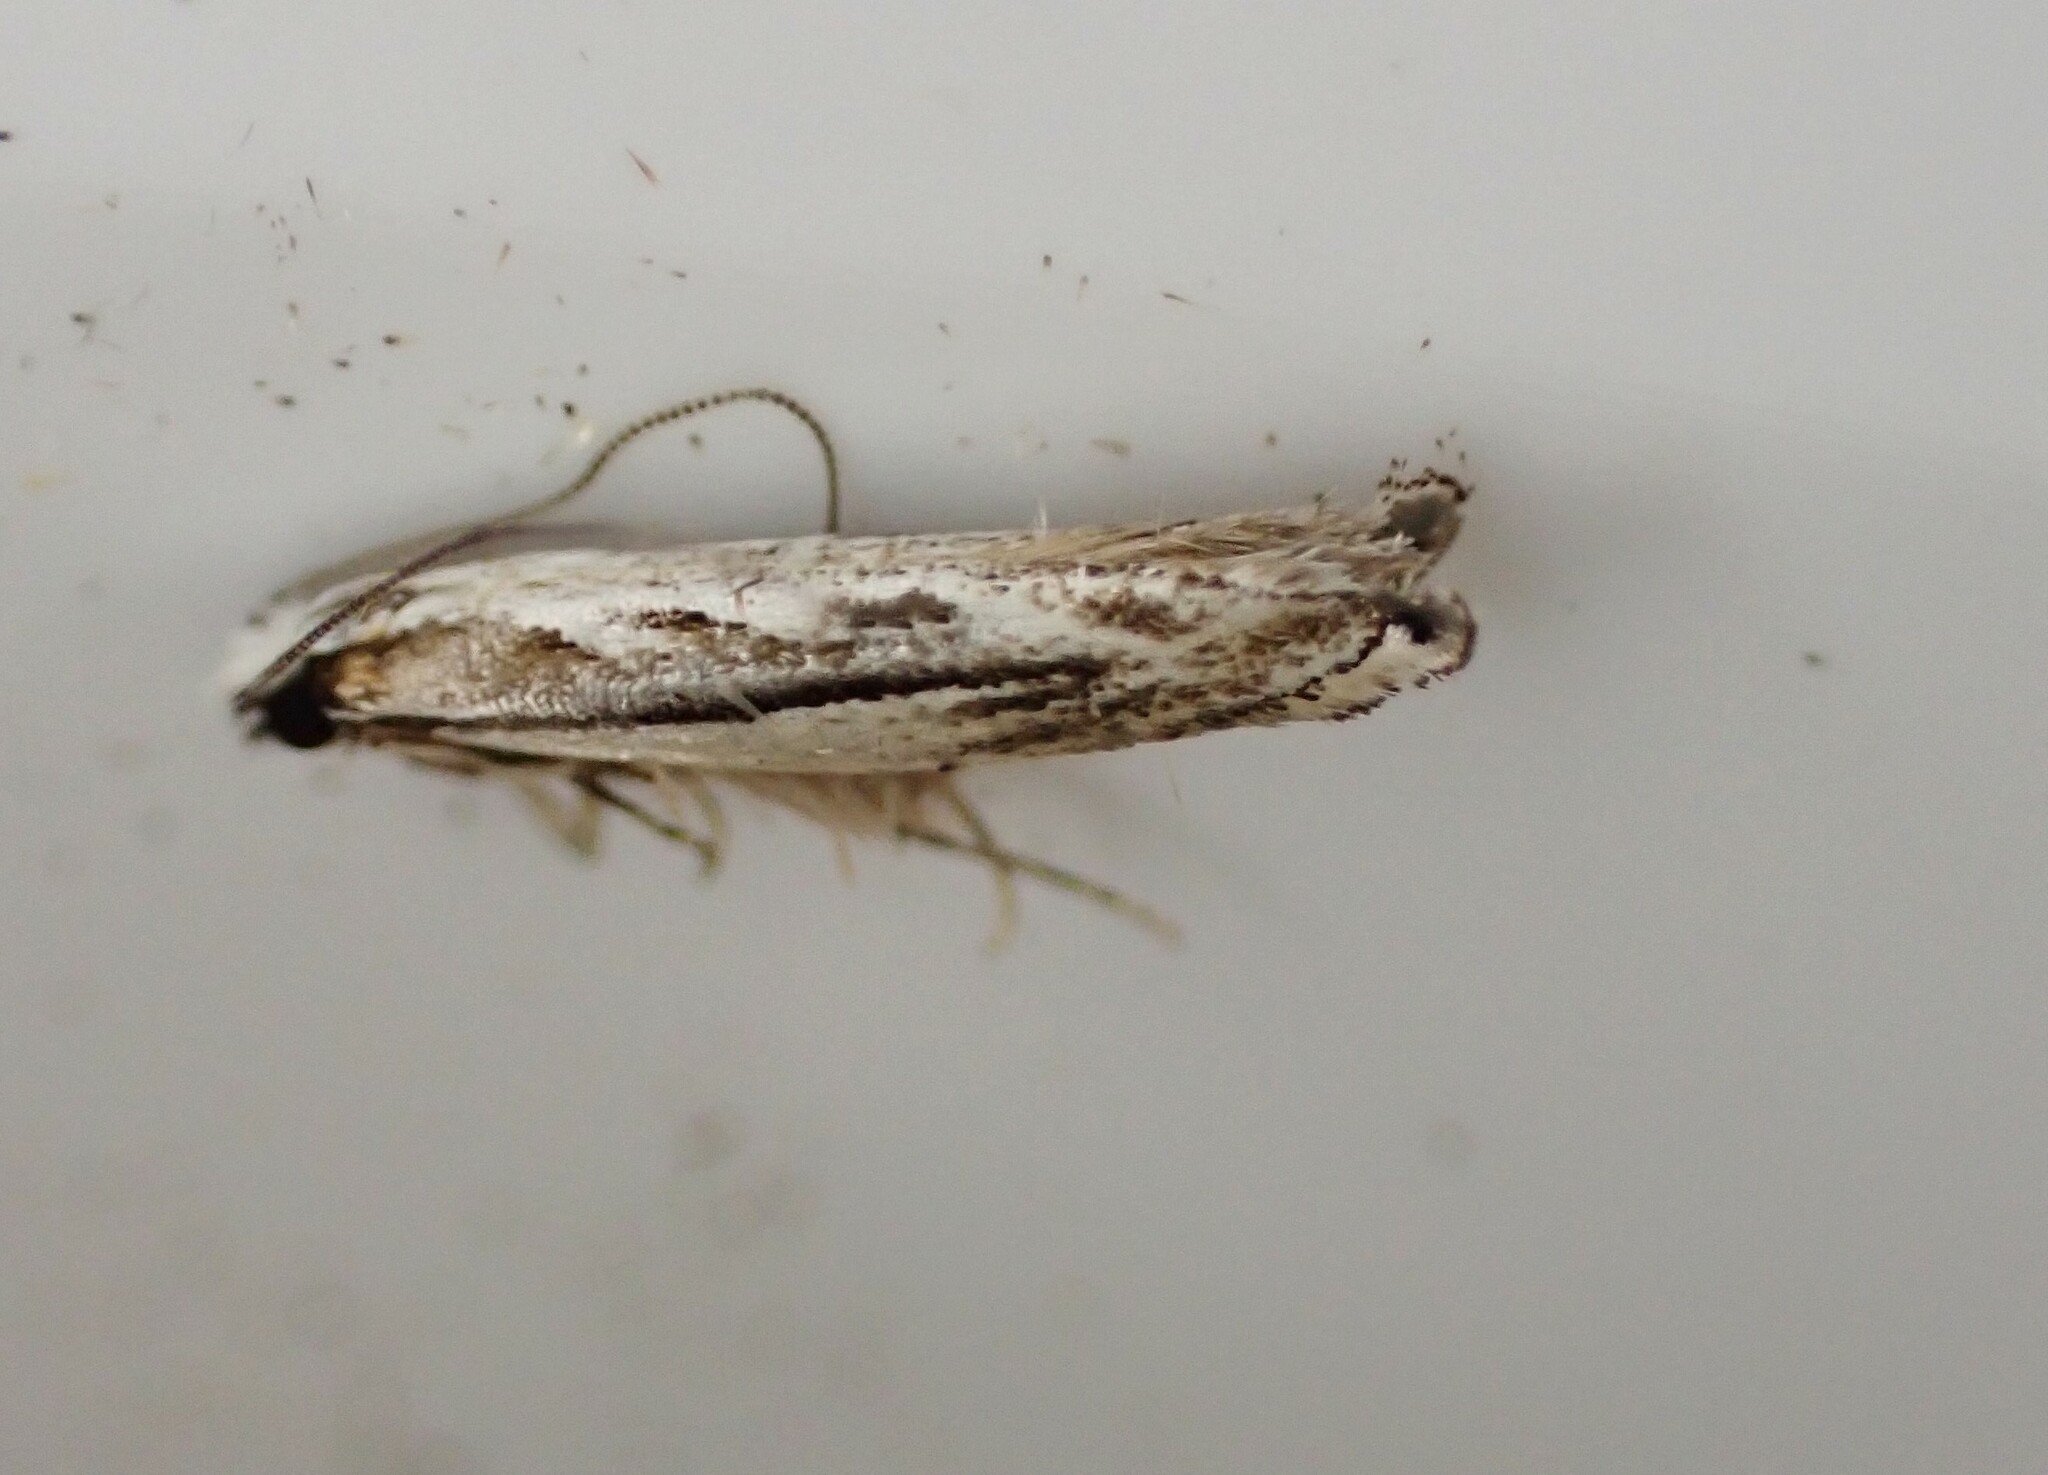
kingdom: Animalia
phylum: Arthropoda
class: Insecta
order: Lepidoptera
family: Tineidae
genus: Erechthias
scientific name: Erechthias fulguritella
